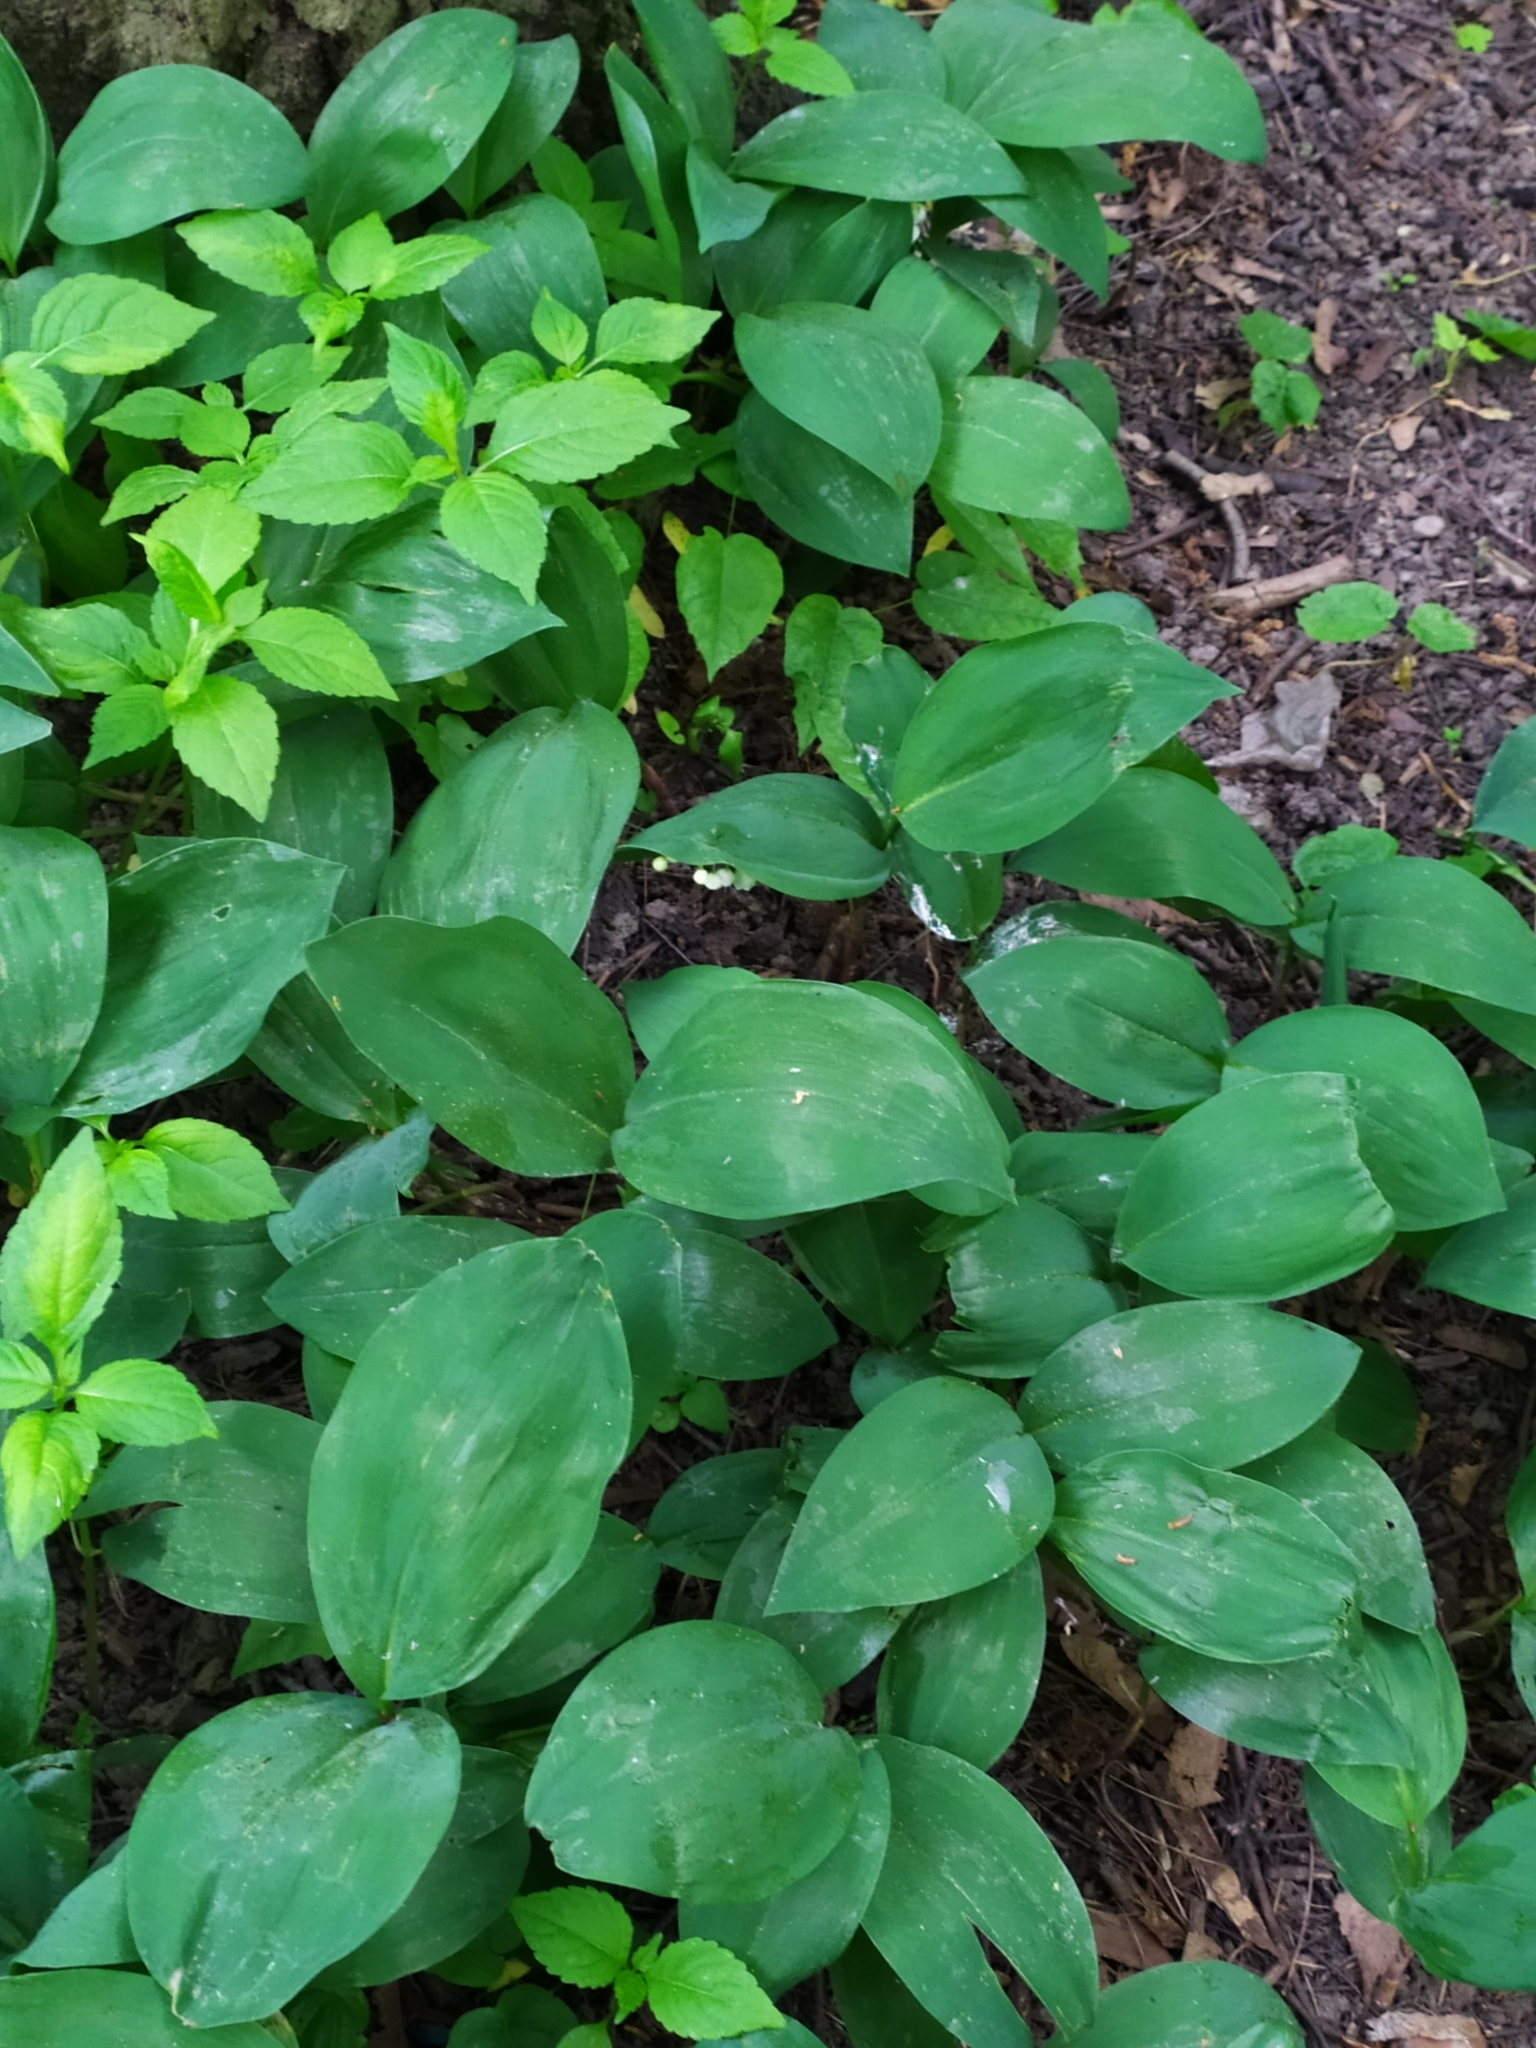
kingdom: Plantae
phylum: Tracheophyta
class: Liliopsida
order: Asparagales
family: Asparagaceae
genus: Convallaria
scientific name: Convallaria majalis
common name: Lily-of-the-valley
